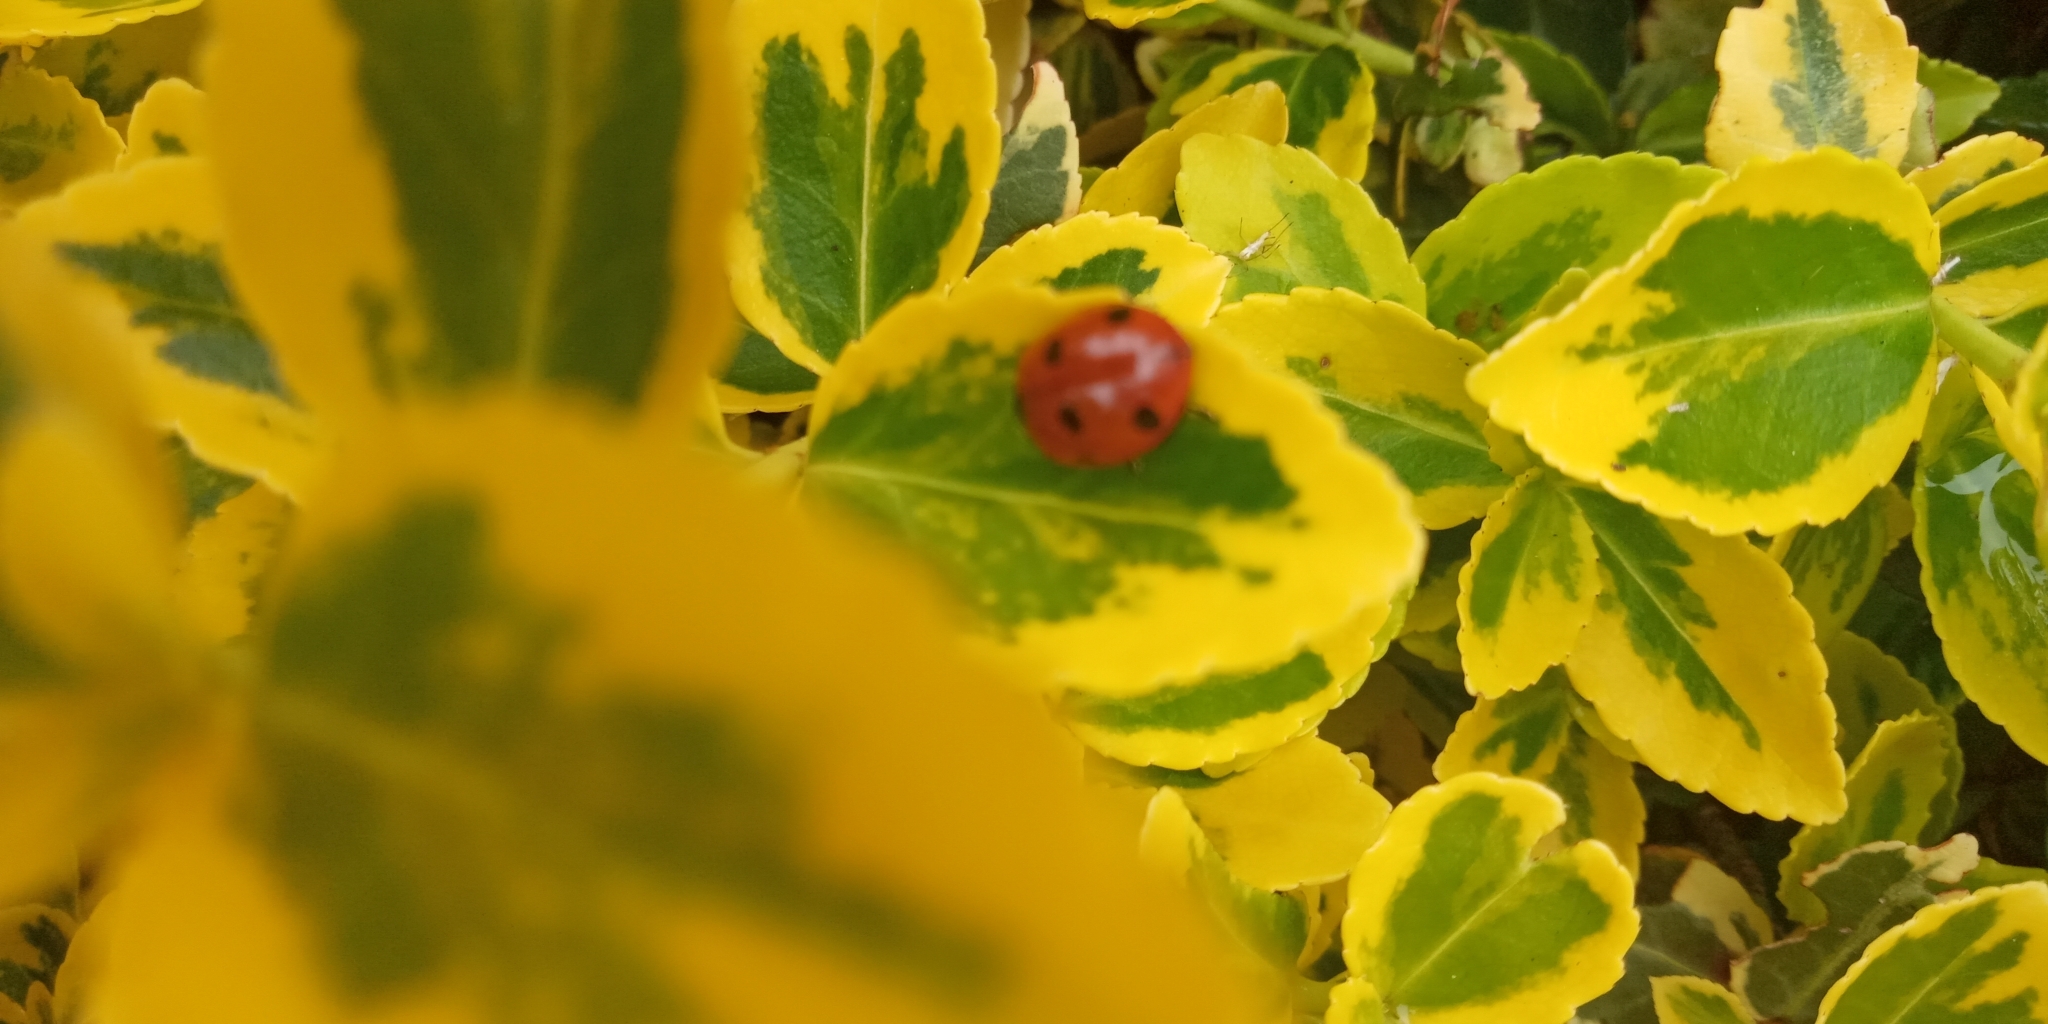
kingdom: Animalia
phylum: Arthropoda
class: Insecta
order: Coleoptera
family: Coccinellidae
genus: Coccinella
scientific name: Coccinella septempunctata
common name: Sevenspotted lady beetle
